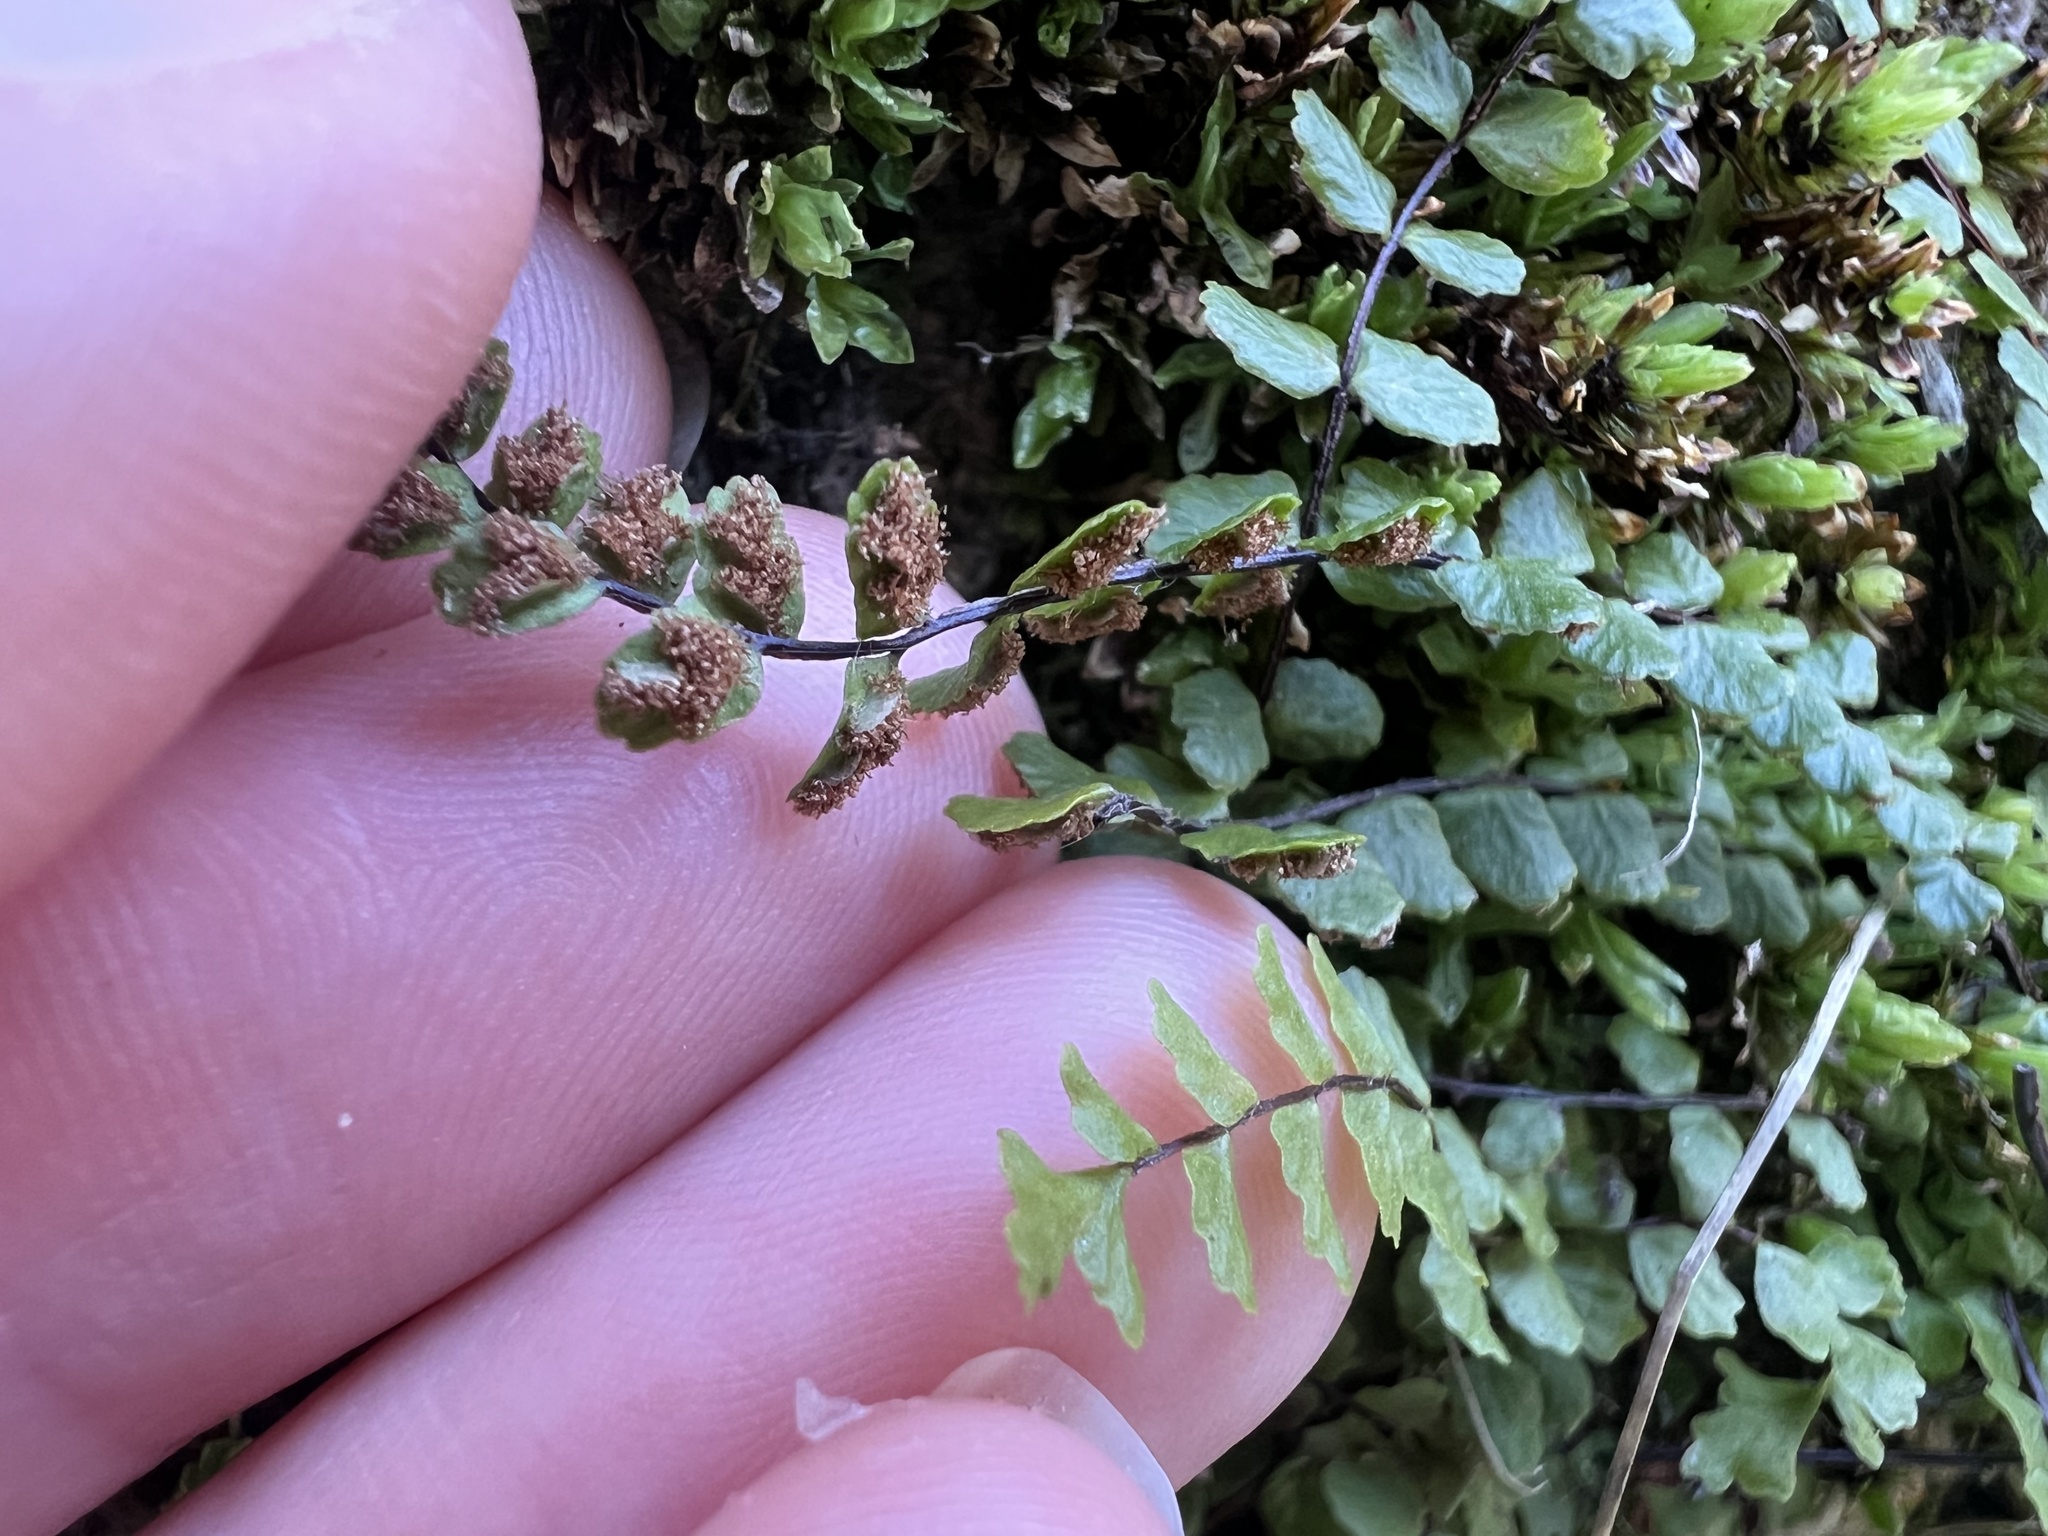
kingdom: Plantae
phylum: Tracheophyta
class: Polypodiopsida
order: Polypodiales
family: Aspleniaceae
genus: Asplenium
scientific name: Asplenium trichomanes
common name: Maidenhair spleenwort
